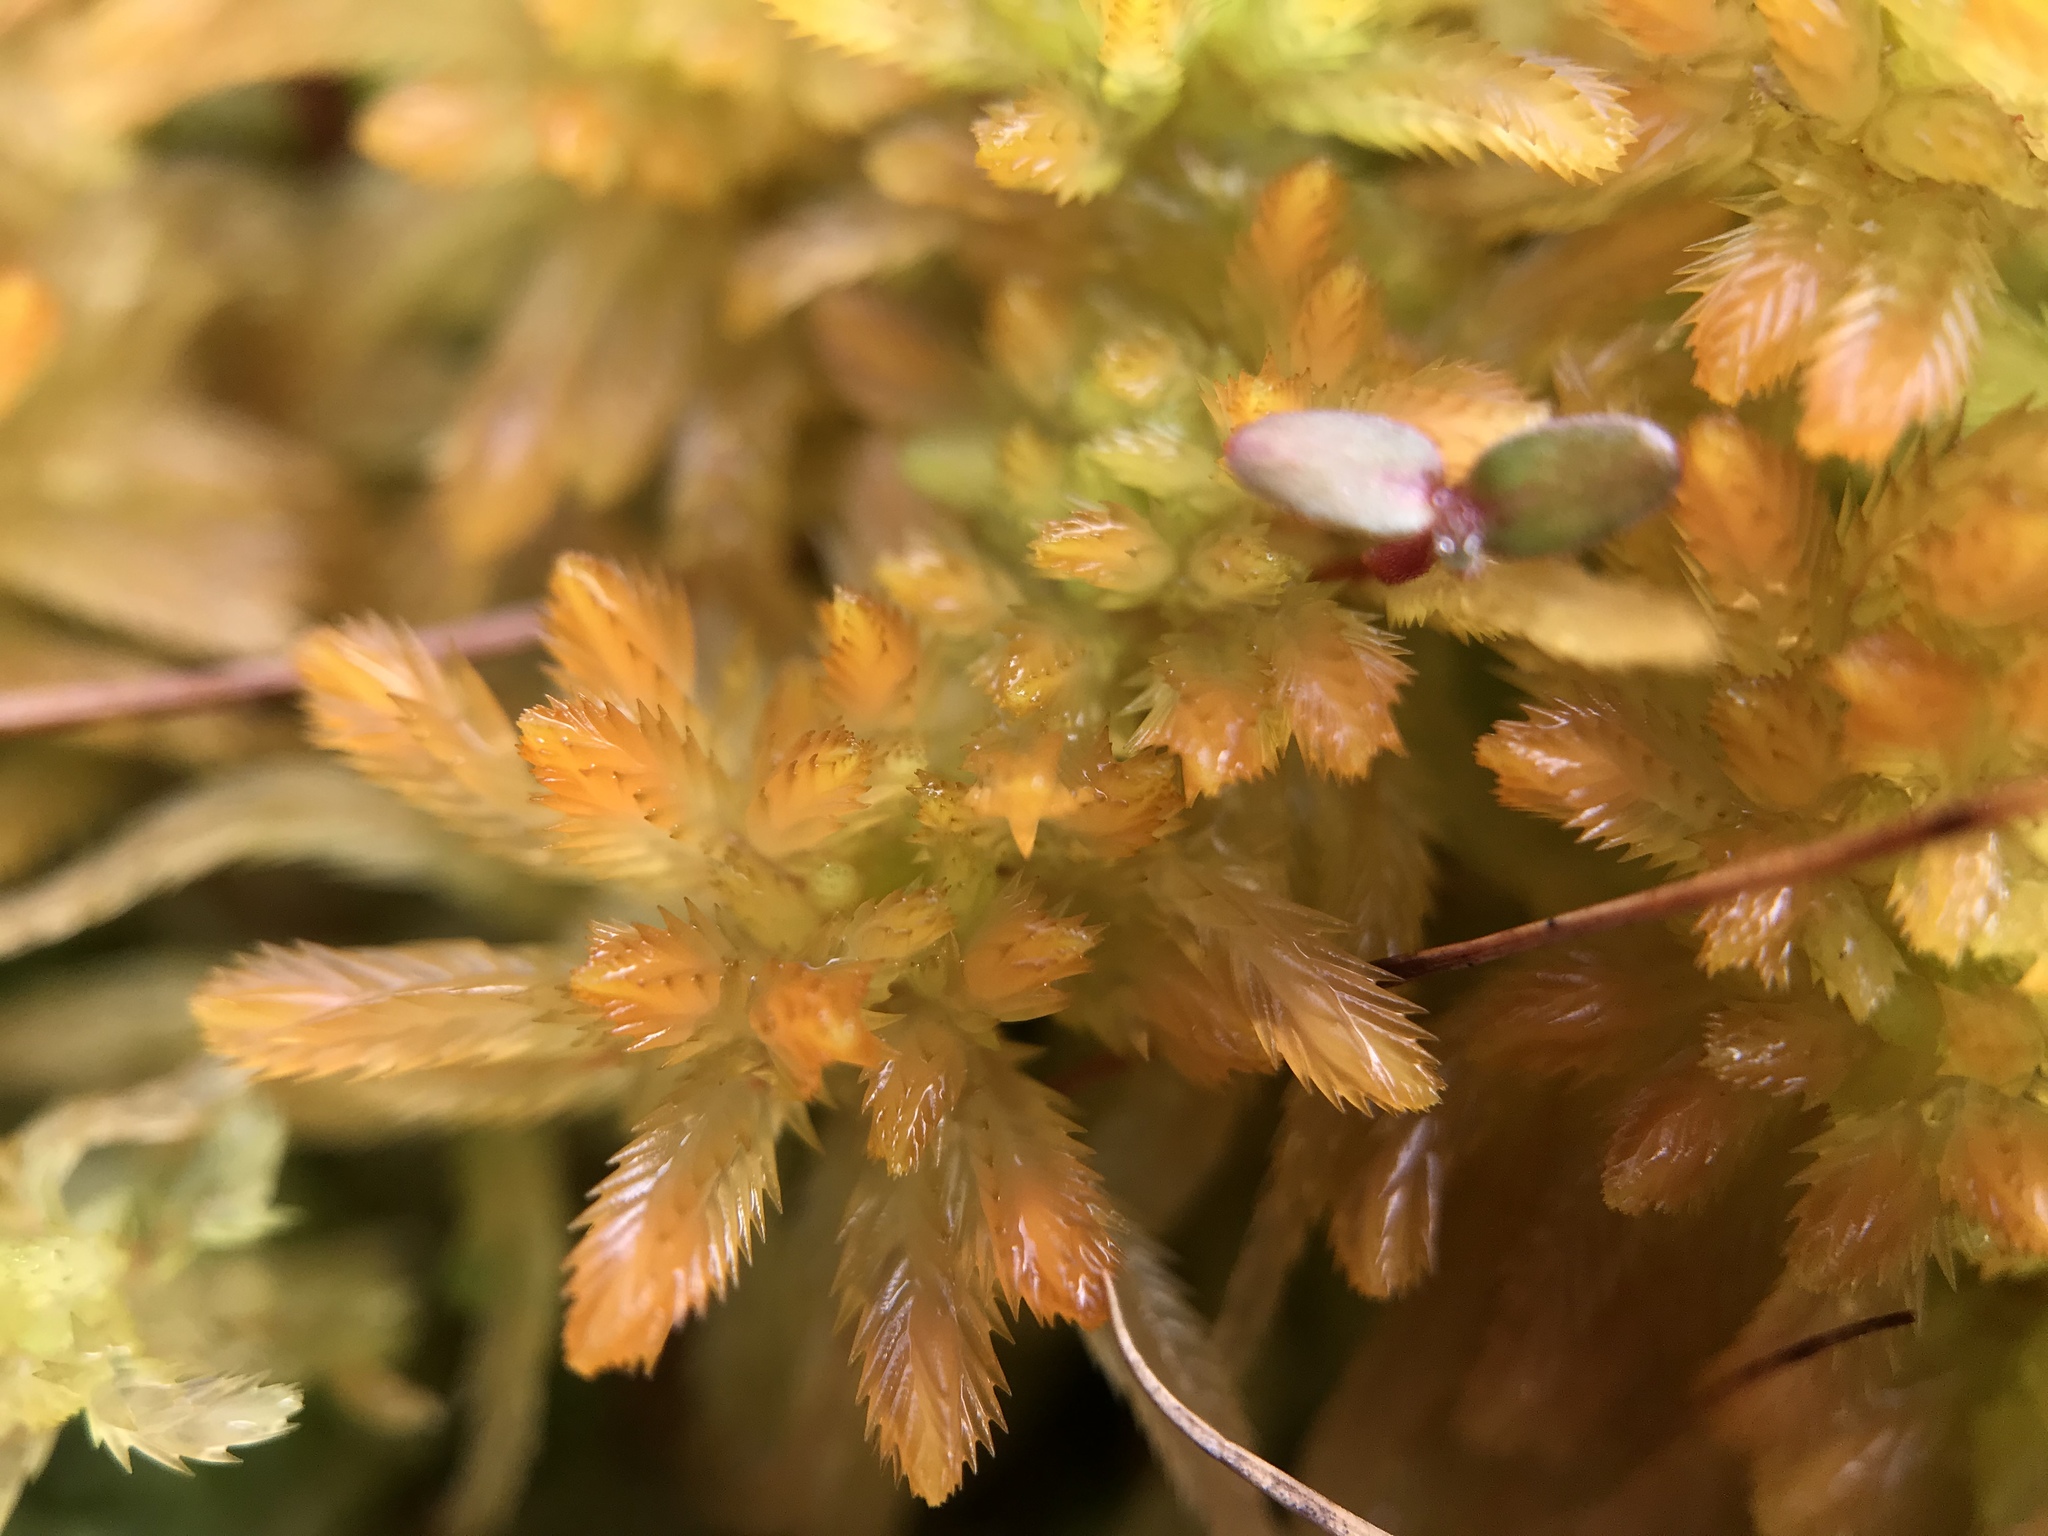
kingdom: Plantae
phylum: Bryophyta
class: Sphagnopsida
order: Sphagnales
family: Sphagnaceae
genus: Sphagnum
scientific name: Sphagnum pulchrum
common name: Beautiful peat moss
